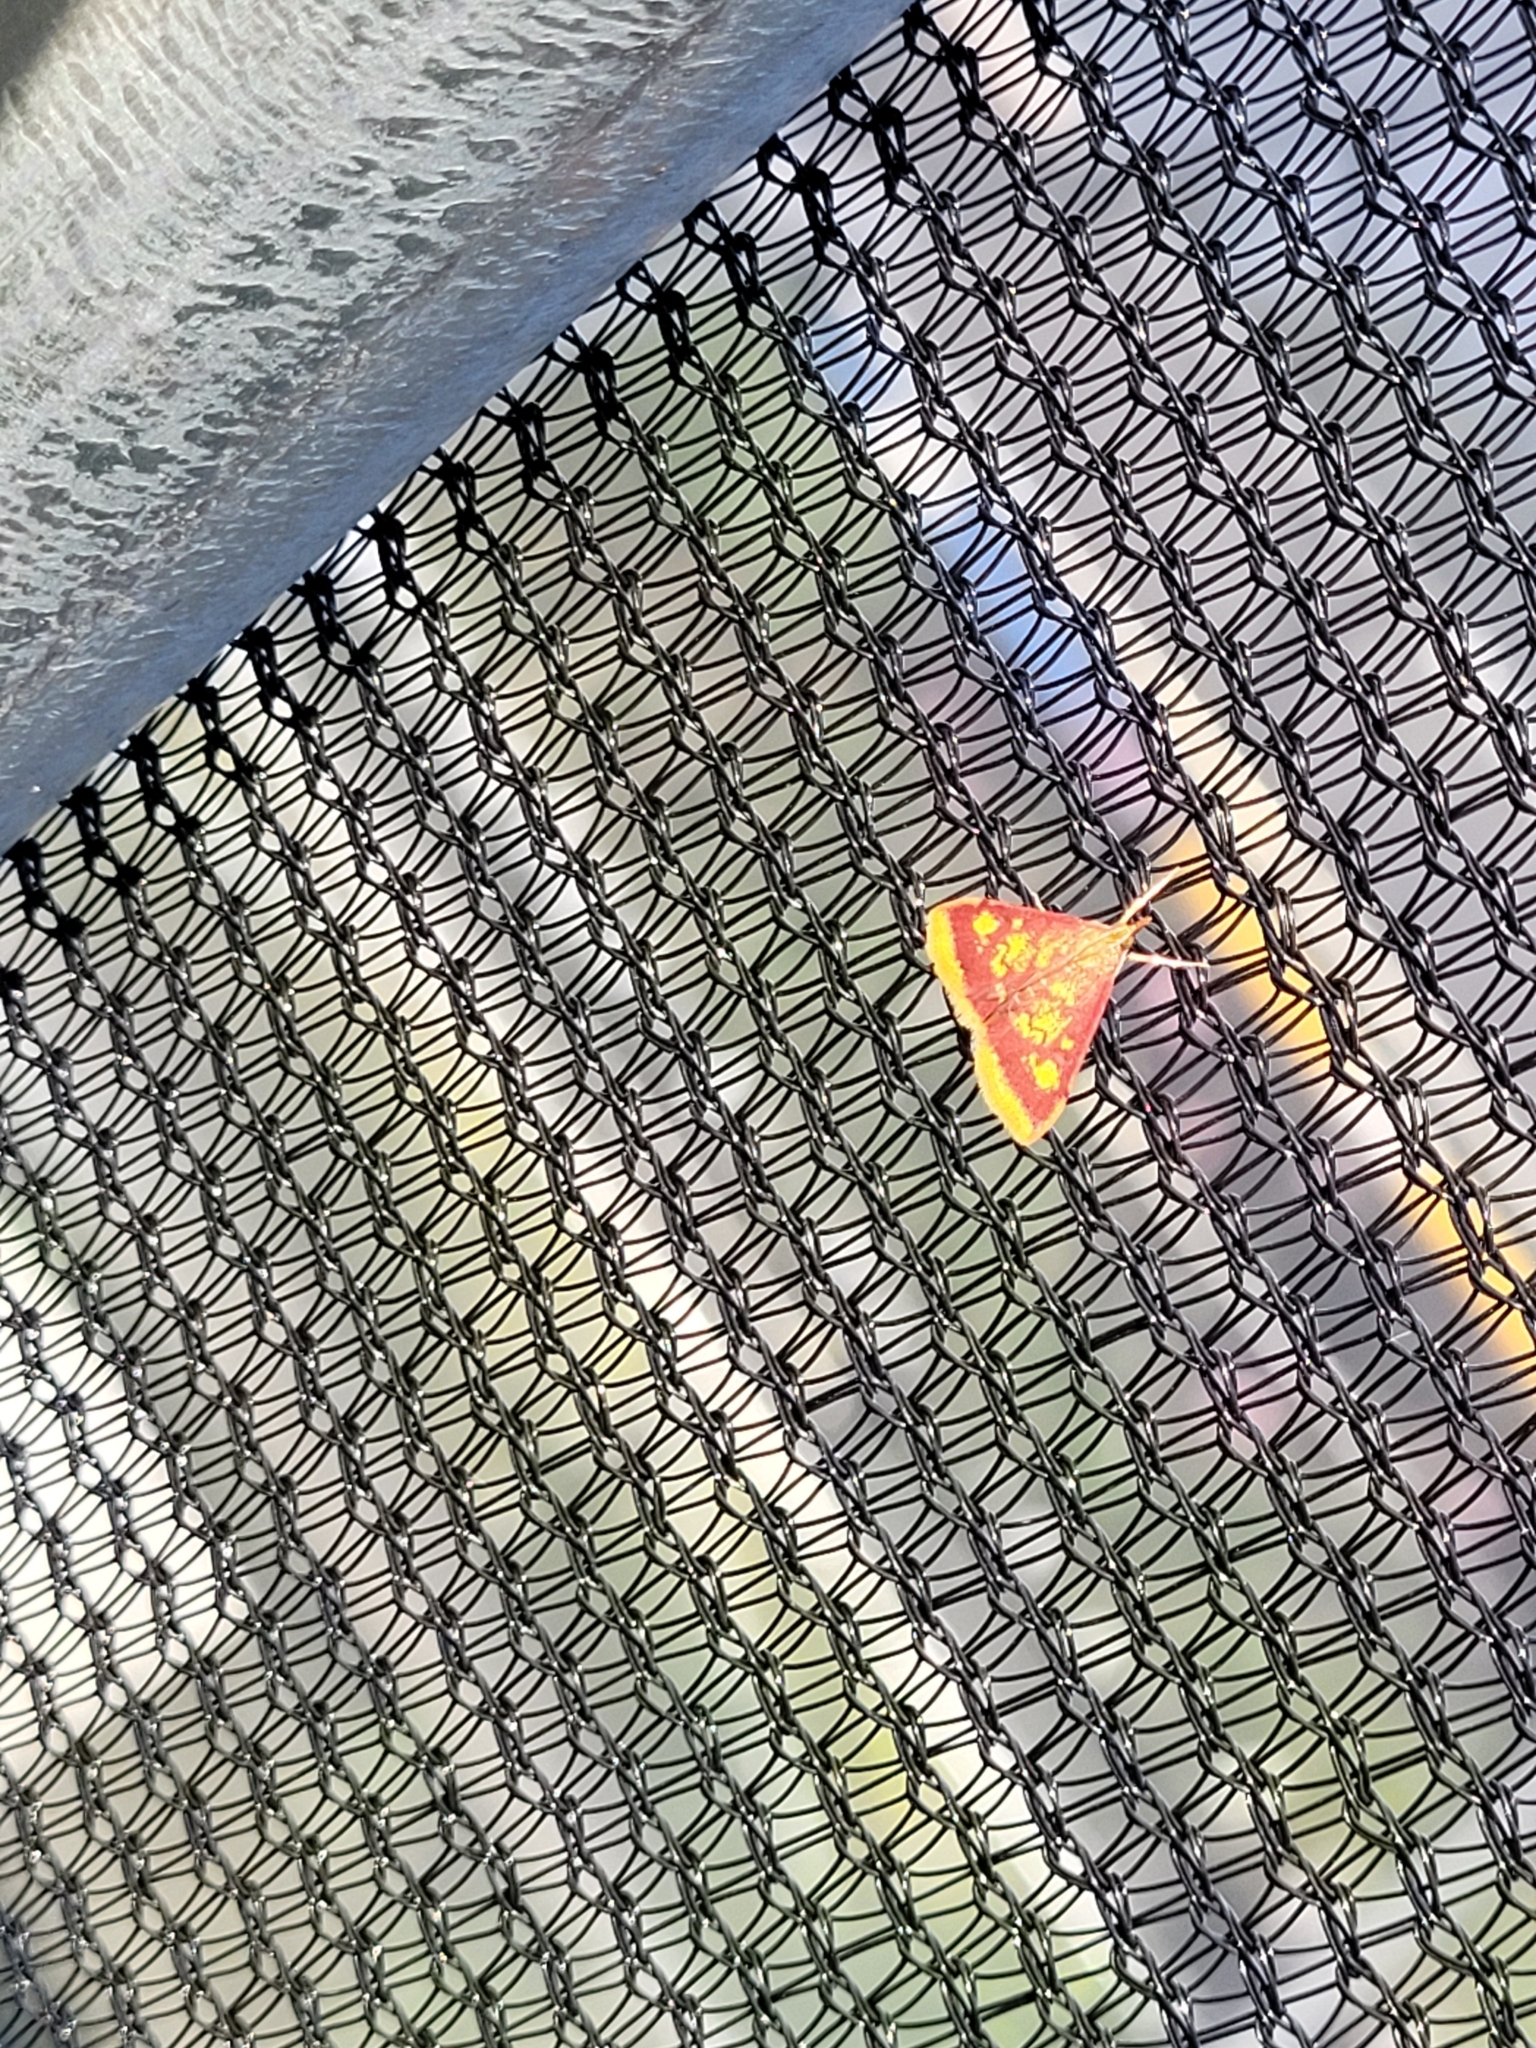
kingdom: Animalia
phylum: Arthropoda
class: Insecta
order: Lepidoptera
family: Crambidae
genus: Pyrausta
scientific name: Pyrausta acrionalis
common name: Mint-loving pyrausta moth
